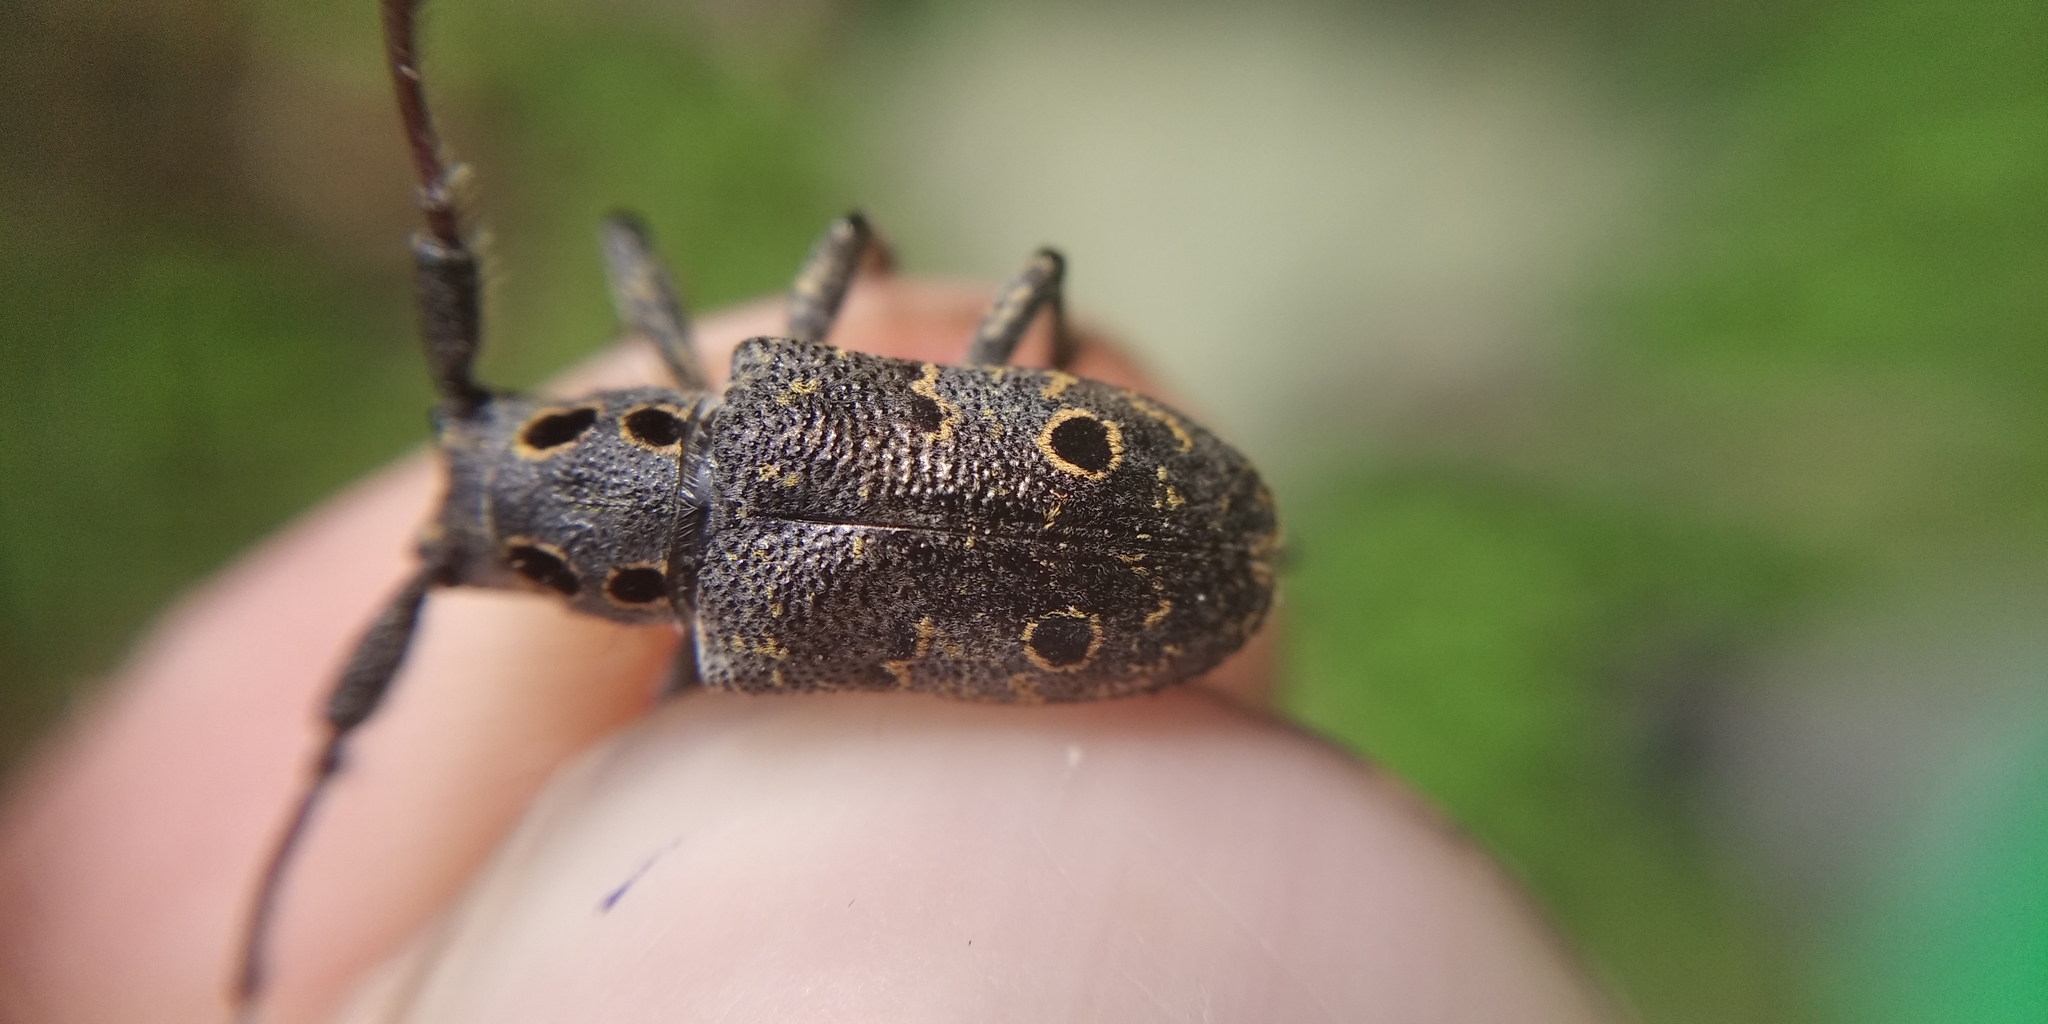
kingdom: Animalia
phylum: Arthropoda
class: Insecta
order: Coleoptera
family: Cerambycidae
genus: Mesosa
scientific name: Mesosa curculionoides
